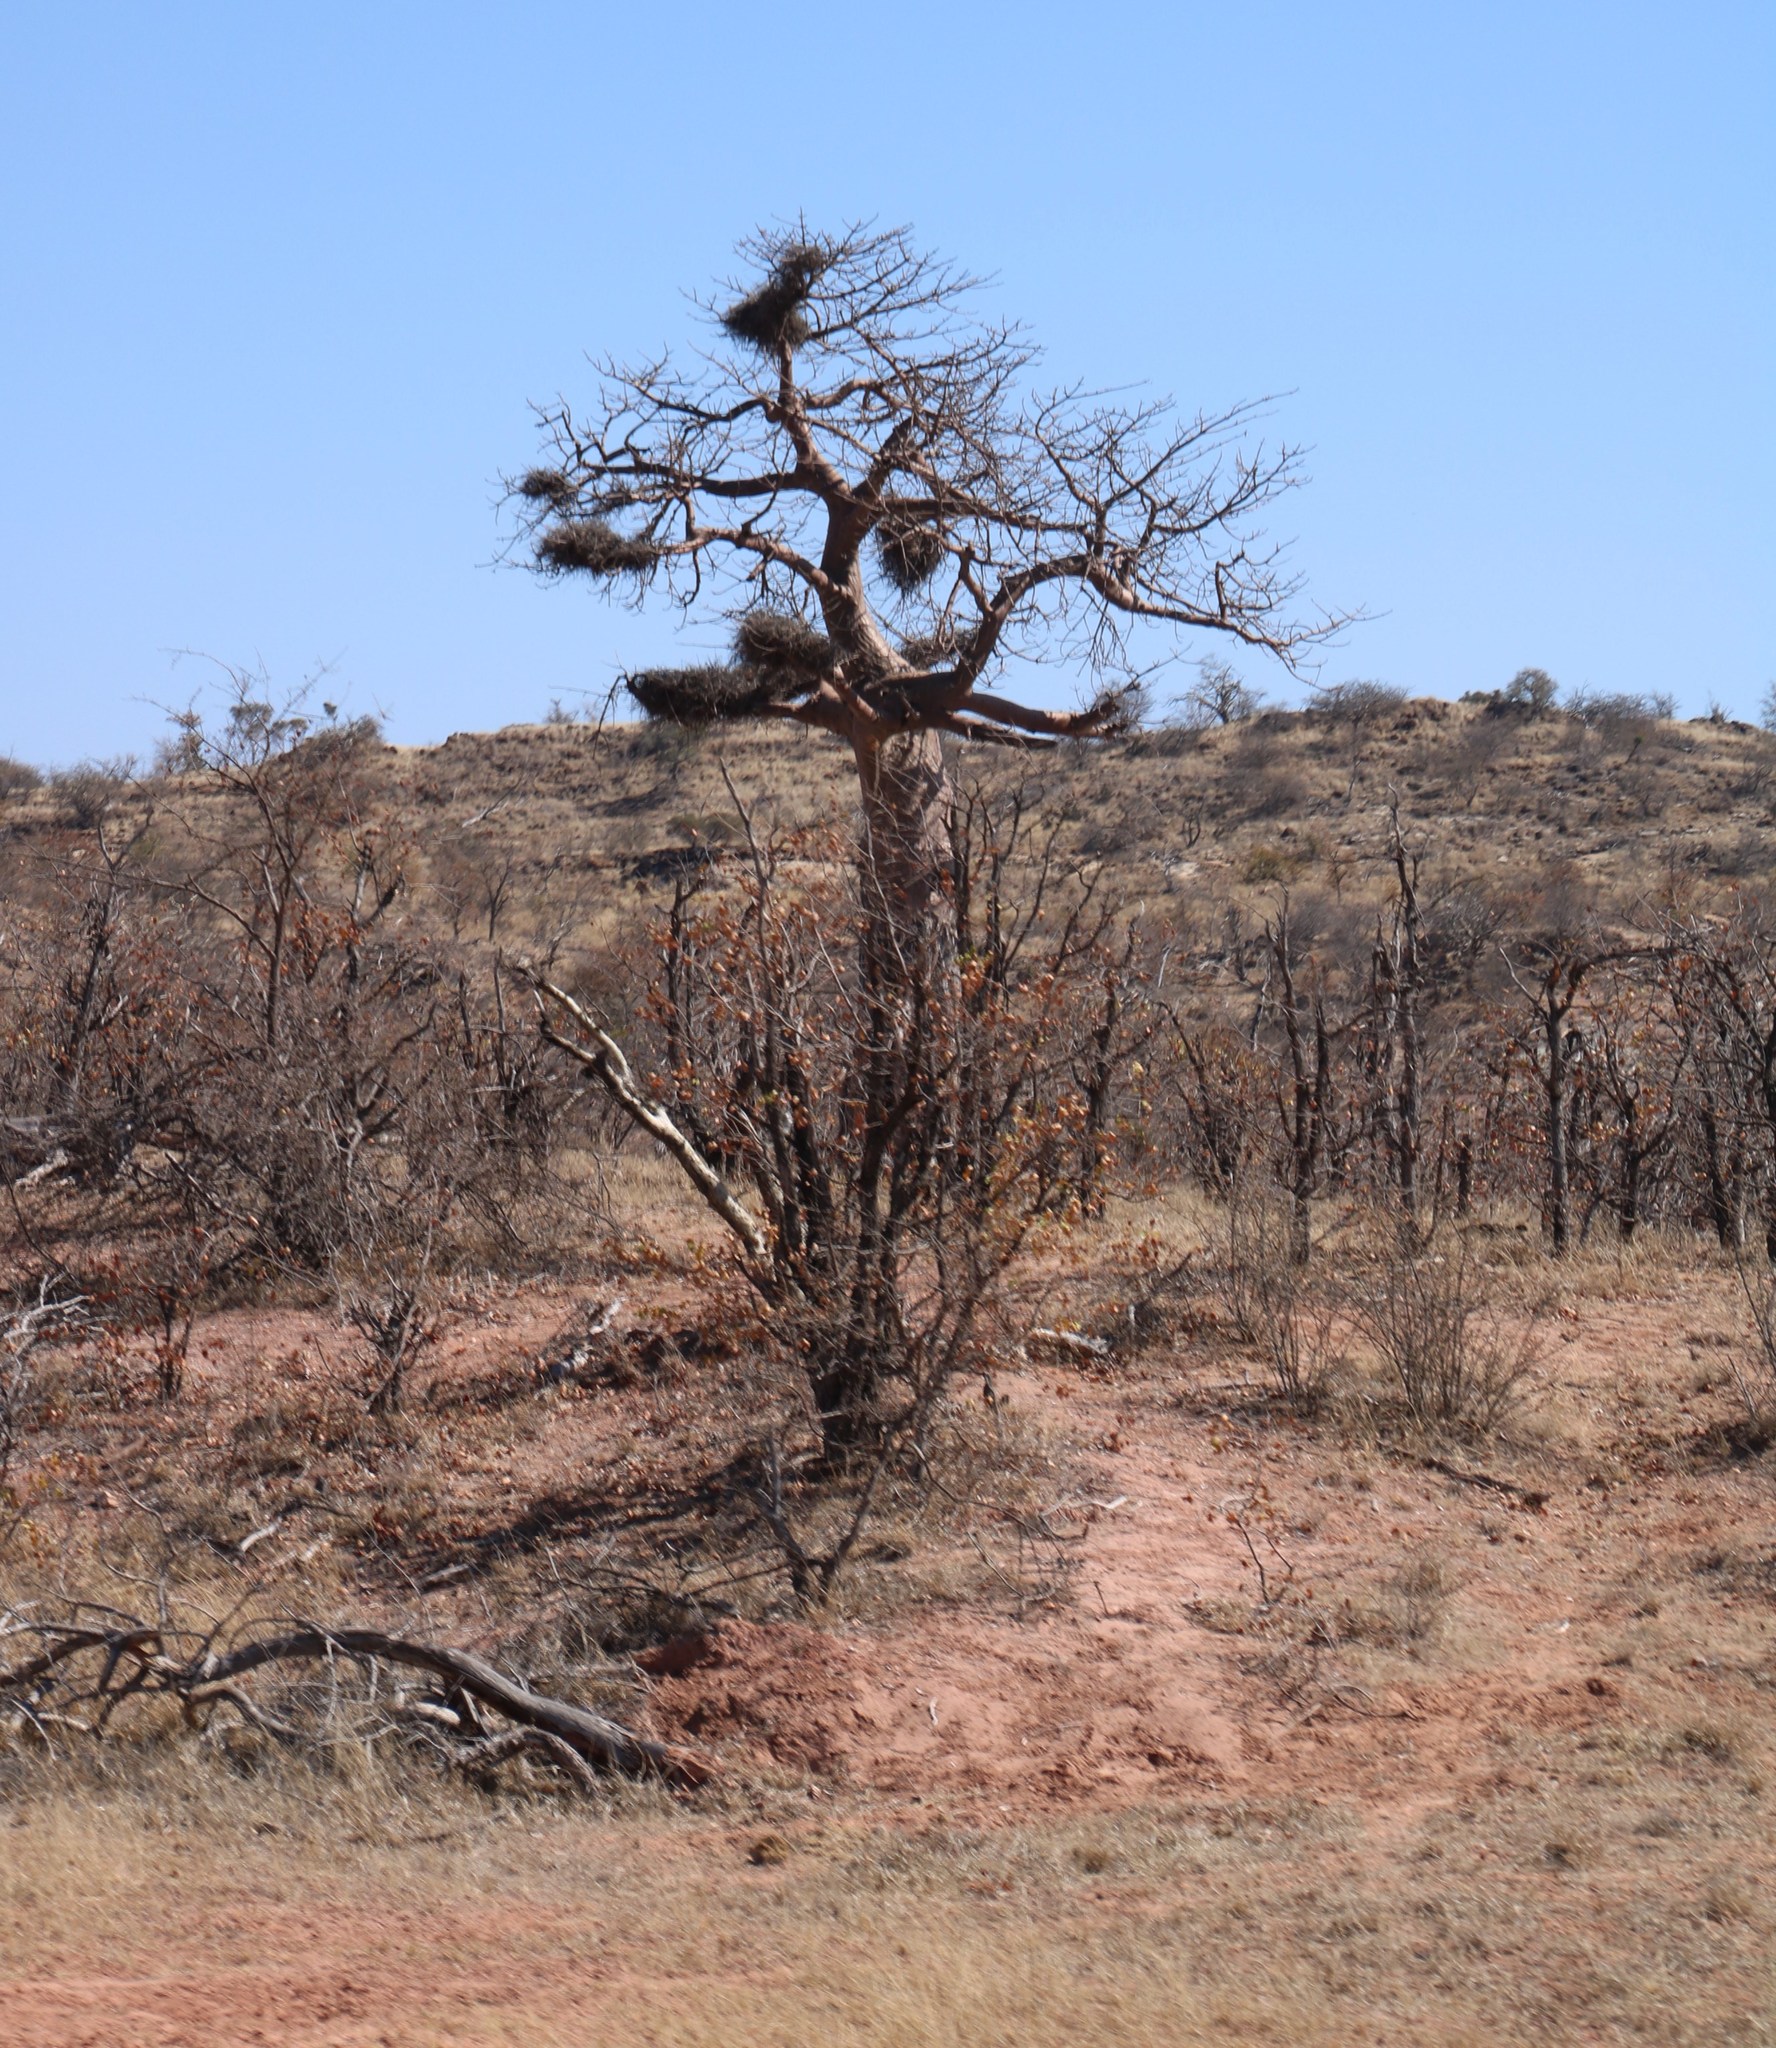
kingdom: Plantae
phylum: Tracheophyta
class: Magnoliopsida
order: Malvales
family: Malvaceae
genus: Adansonia
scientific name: Adansonia digitata
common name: Dead-rat-tree
